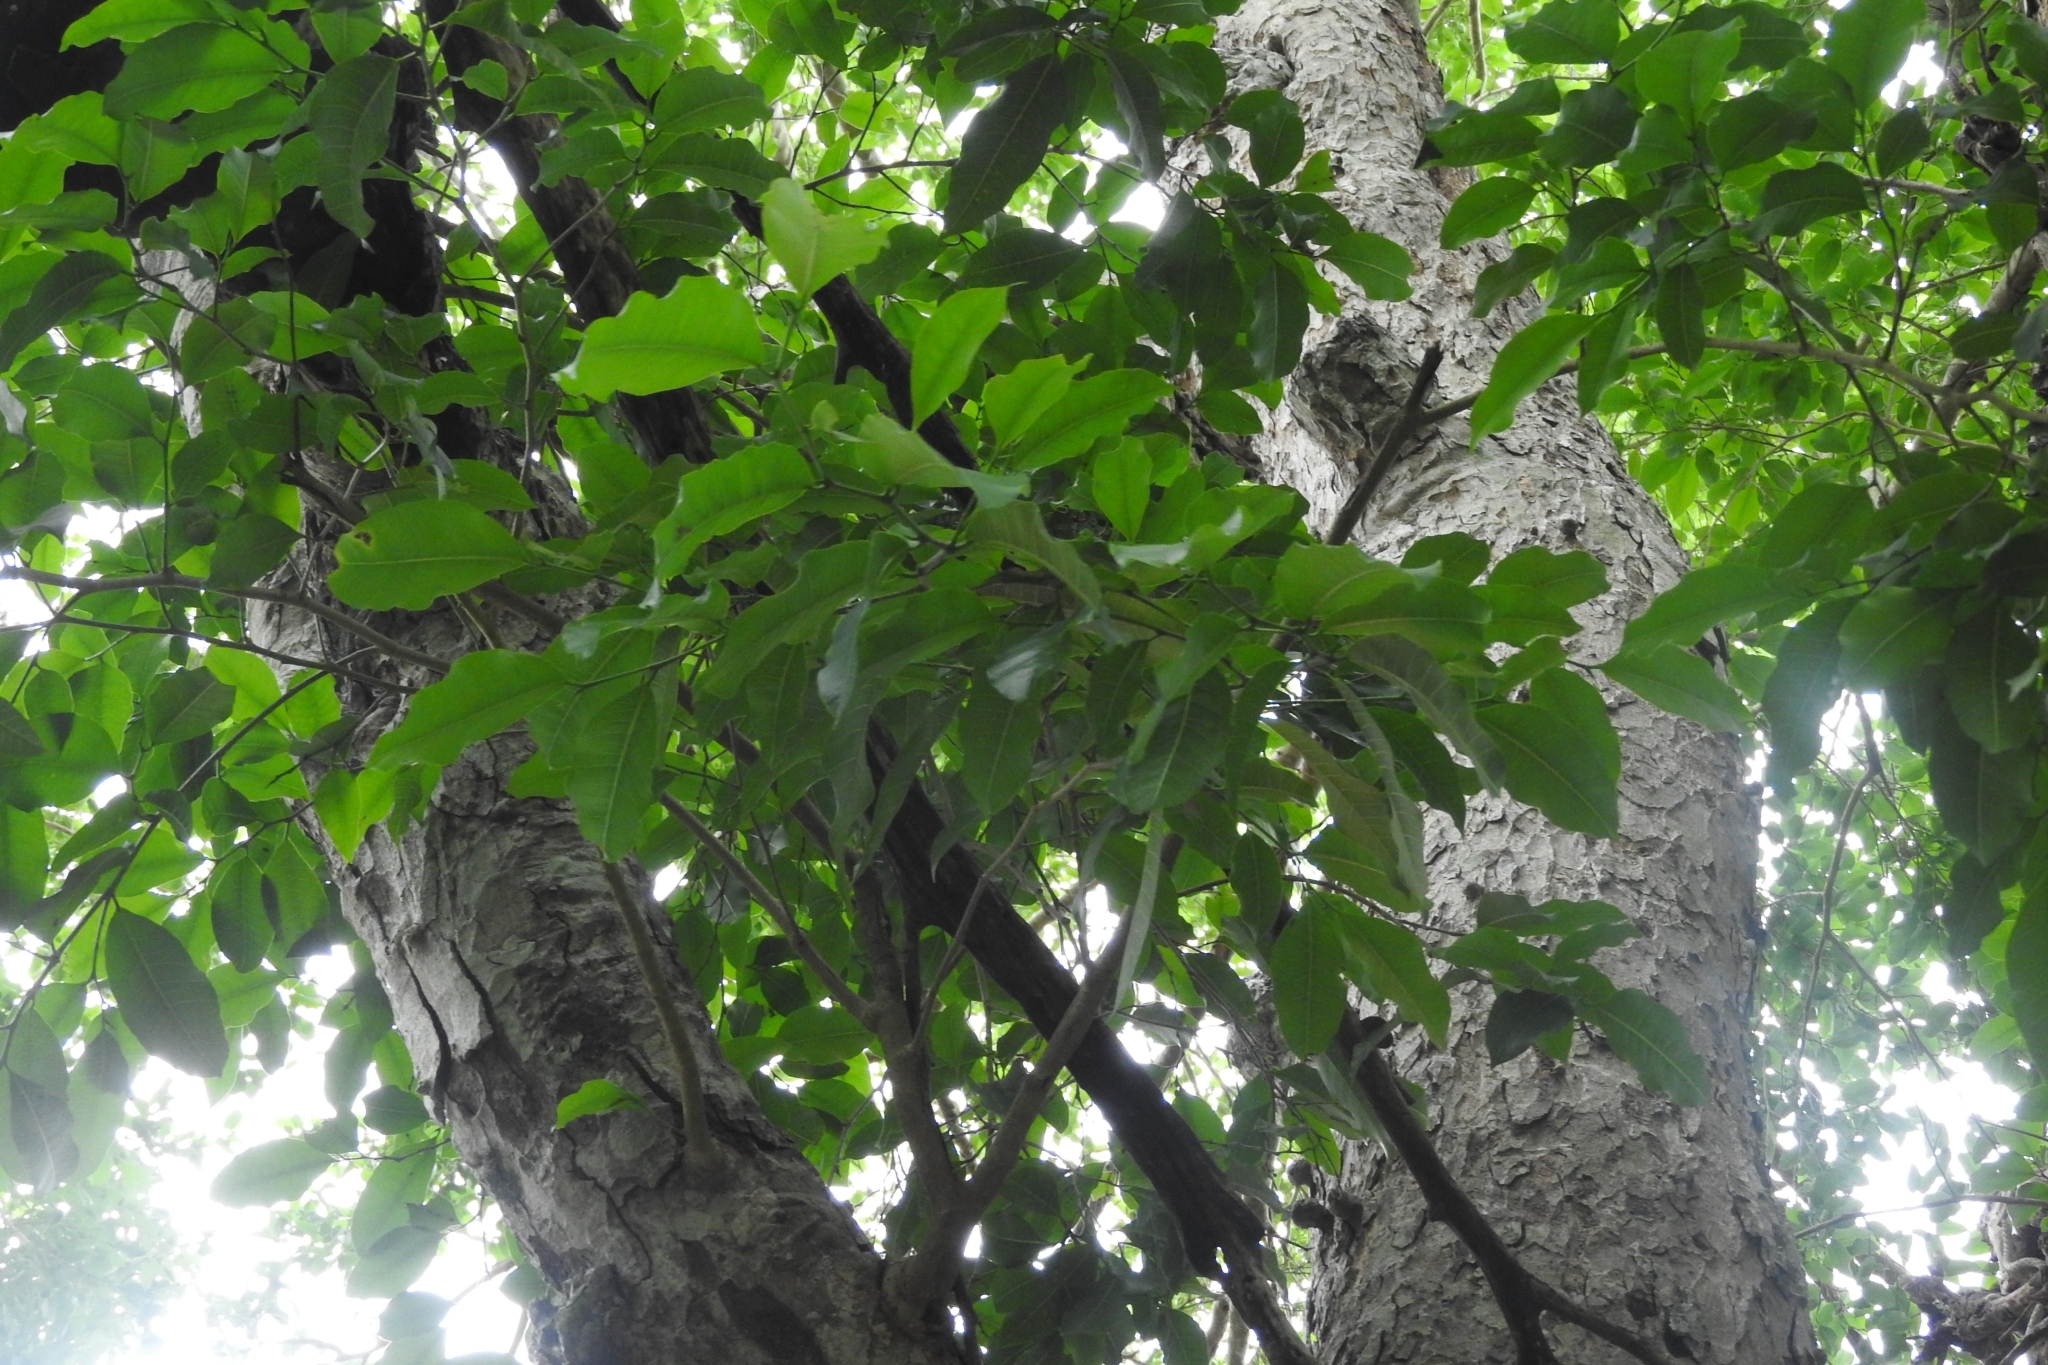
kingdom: Plantae
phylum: Tracheophyta
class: Magnoliopsida
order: Rosales
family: Moraceae
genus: Brosimum
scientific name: Brosimum alicastrum
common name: Breadnut
